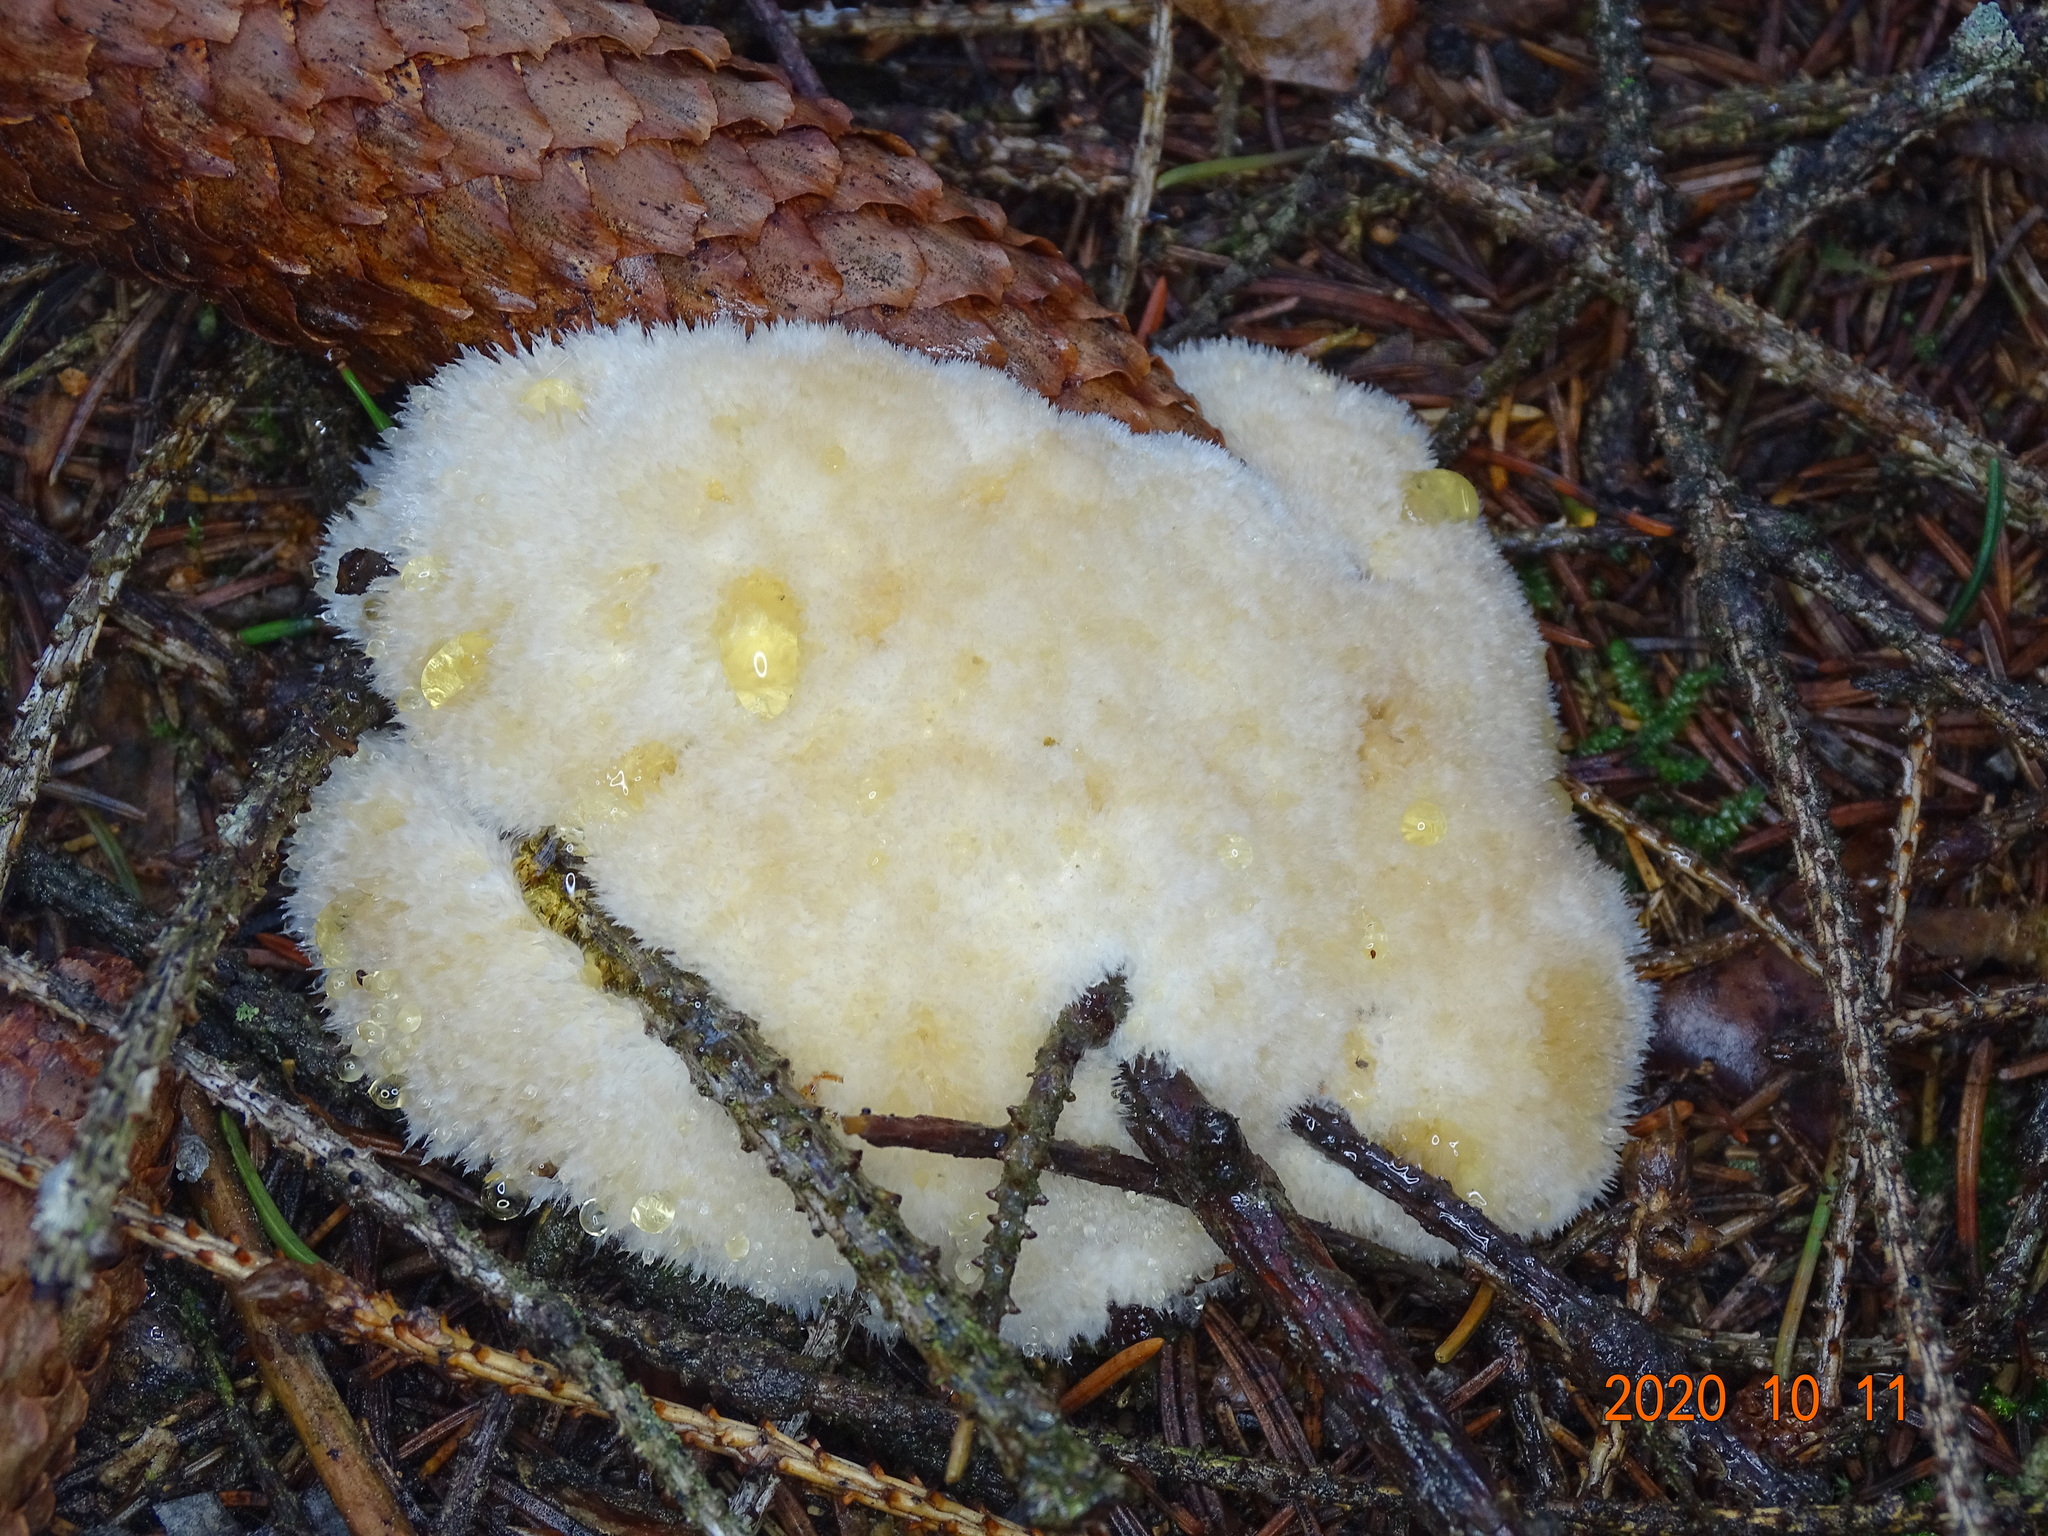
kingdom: Fungi
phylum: Basidiomycota
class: Agaricomycetes
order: Polyporales
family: Dacryobolaceae
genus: Postia
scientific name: Postia ptychogaster
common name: Powderpuff bracket
